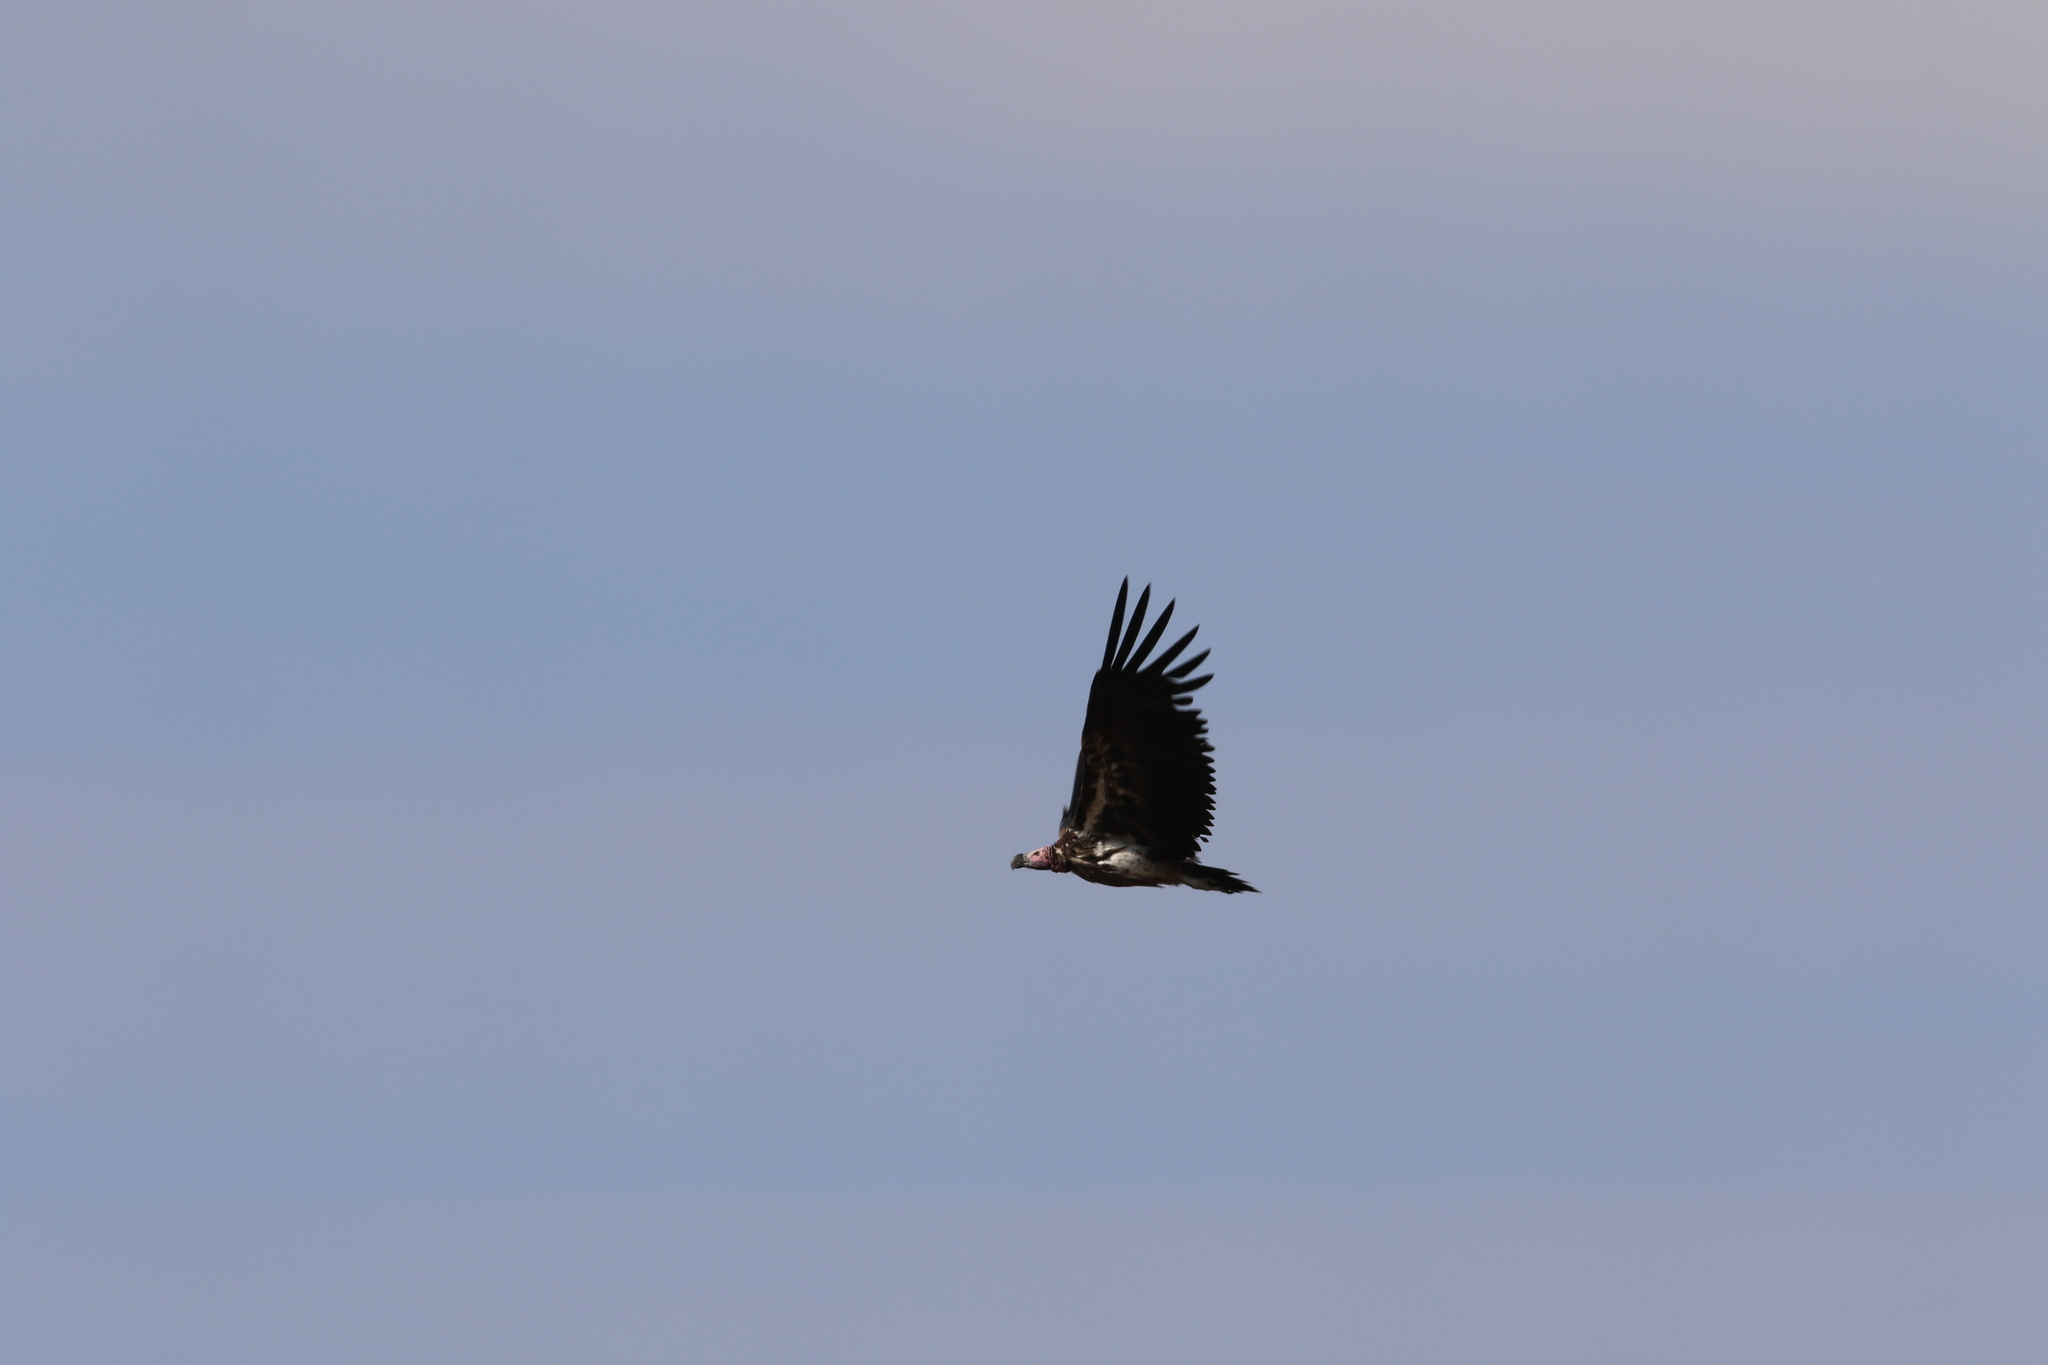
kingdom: Animalia
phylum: Chordata
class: Aves
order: Accipitriformes
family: Accipitridae
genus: Torgos
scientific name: Torgos tracheliotos
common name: Lappet-faced vulture
